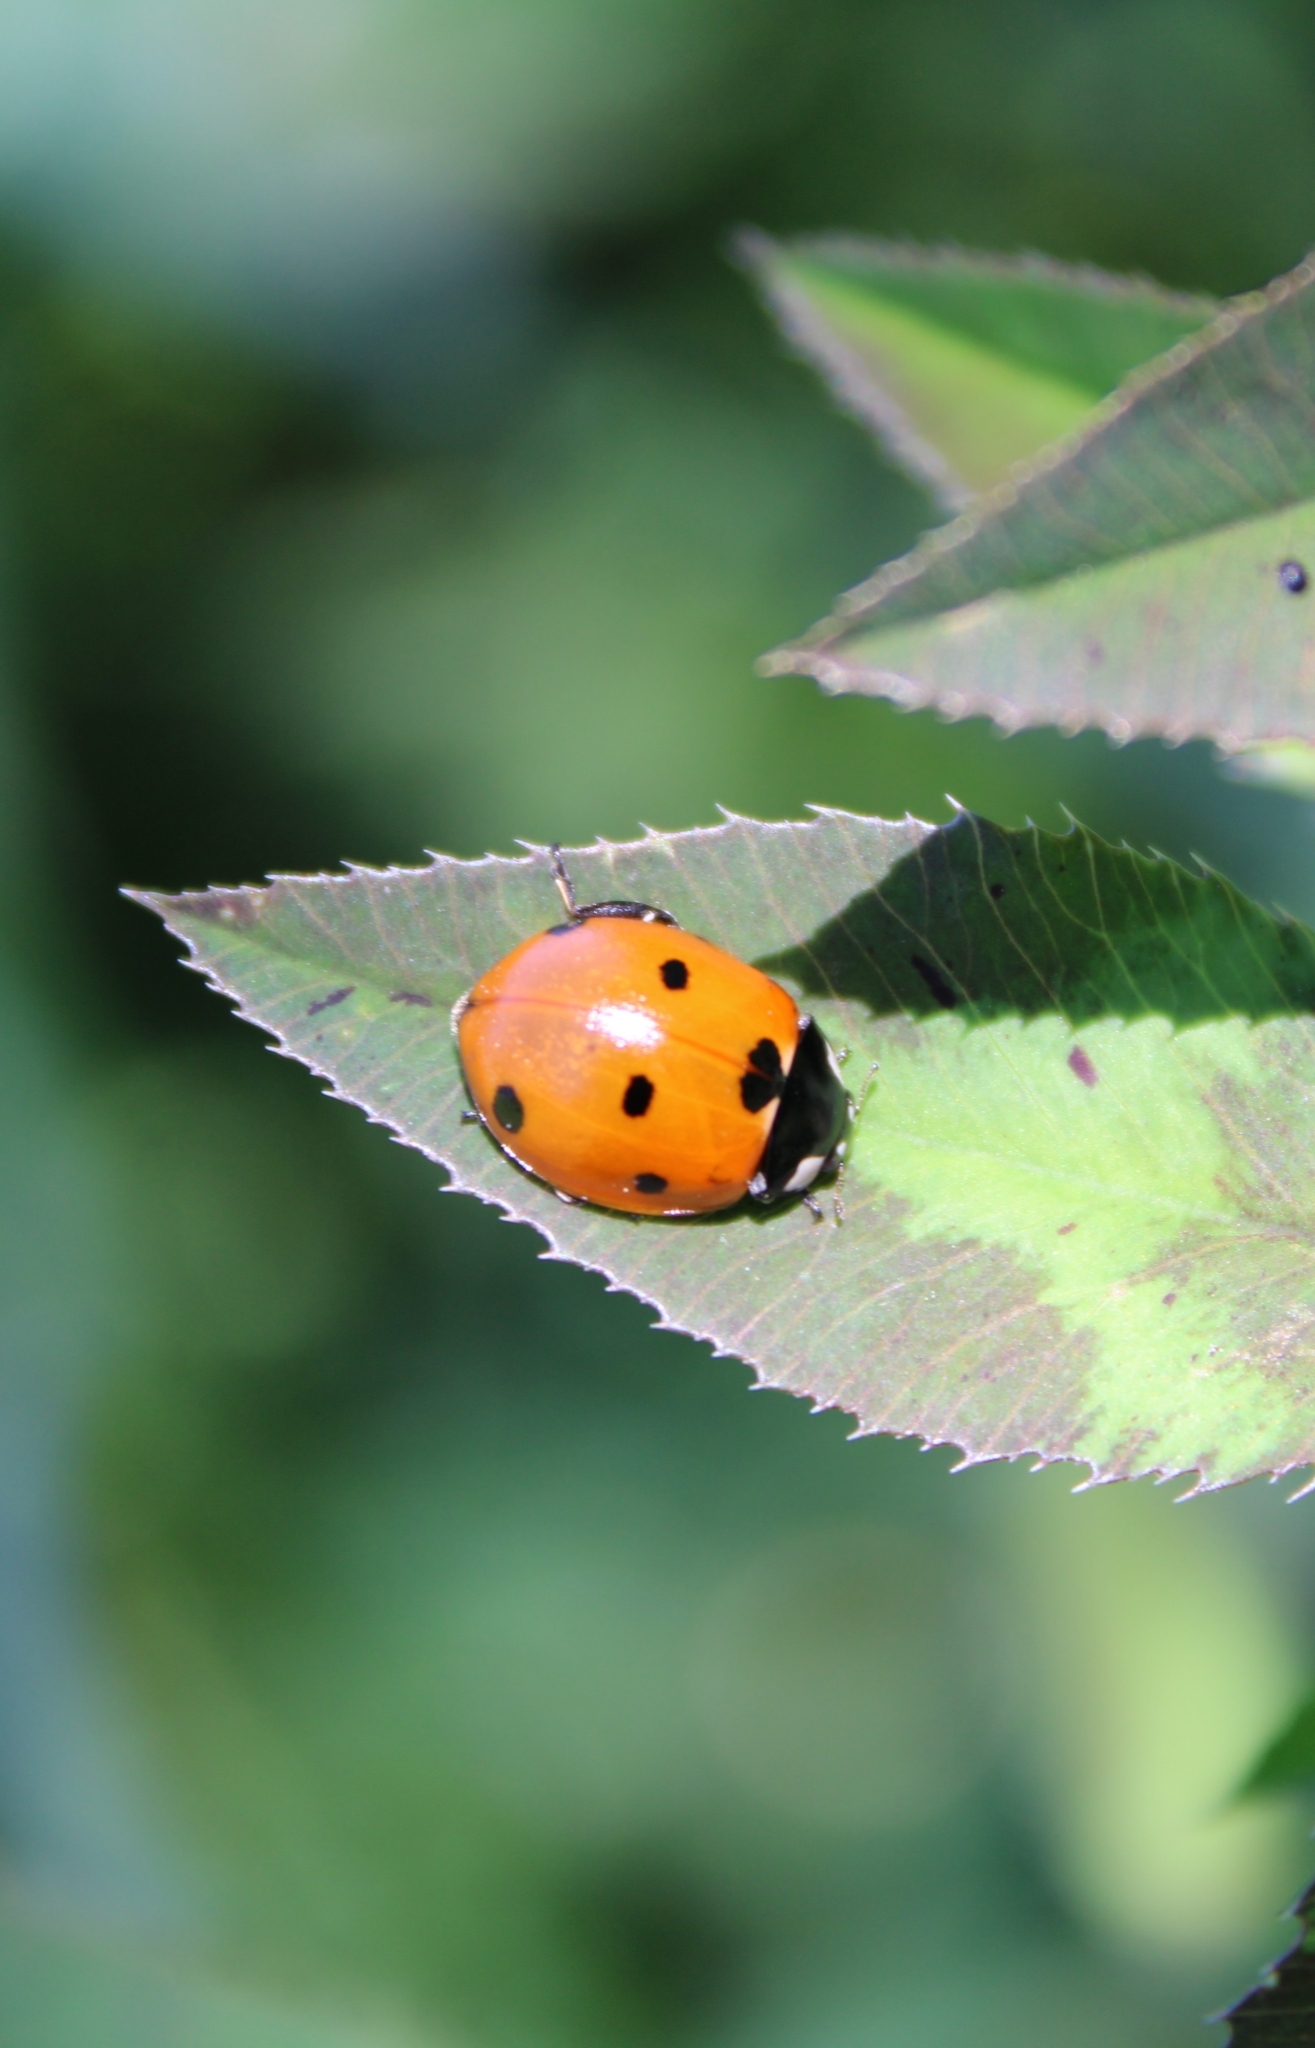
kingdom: Animalia
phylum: Arthropoda
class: Insecta
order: Coleoptera
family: Coccinellidae
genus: Coccinella
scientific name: Coccinella septempunctata
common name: Sevenspotted lady beetle
